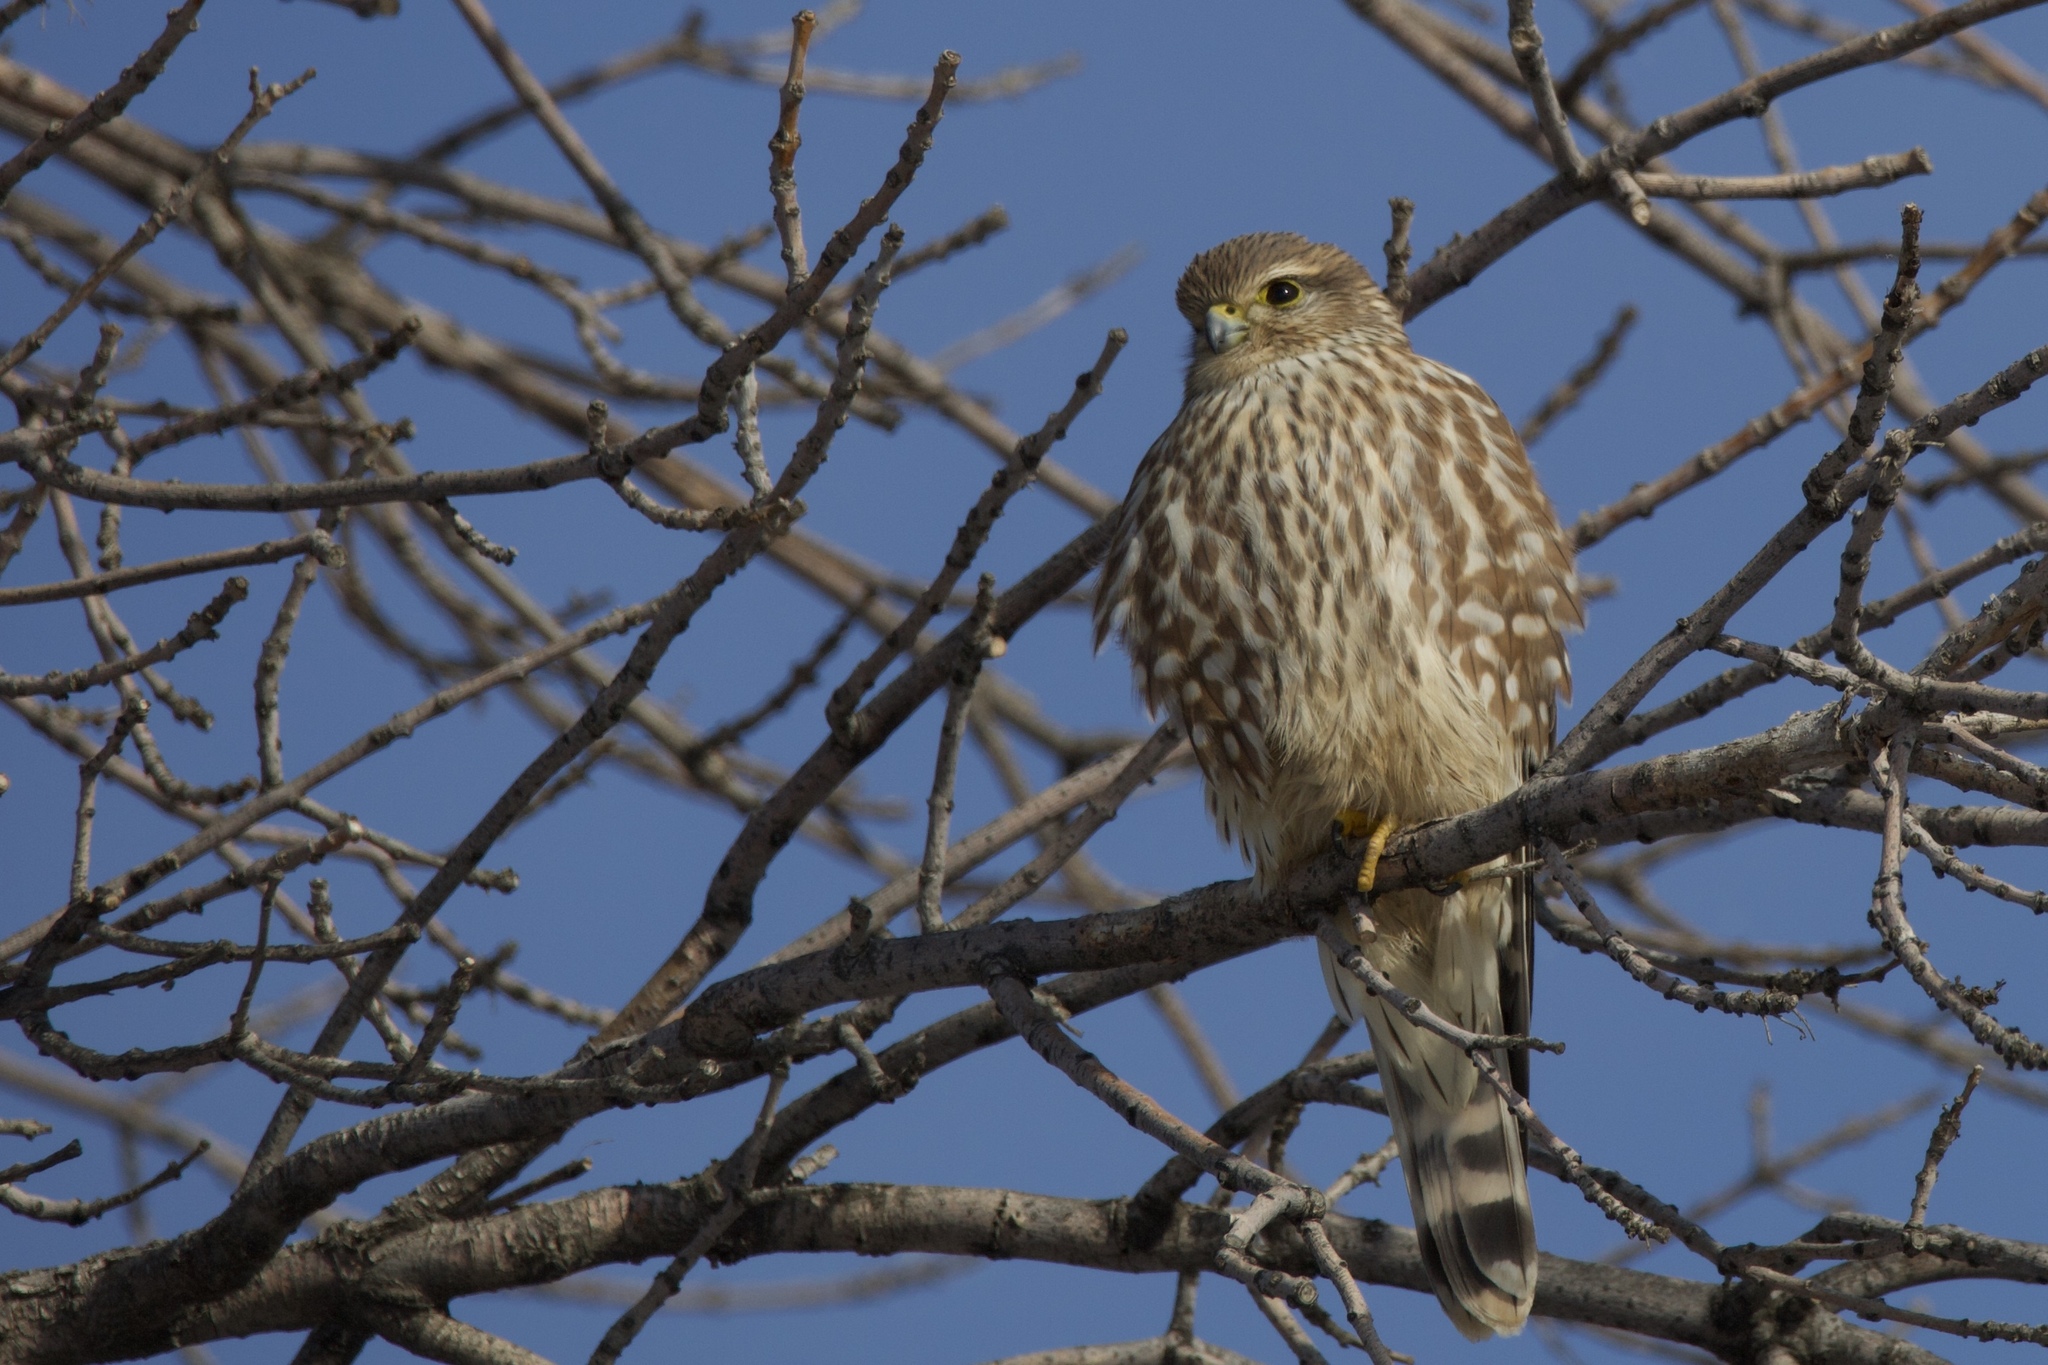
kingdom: Animalia
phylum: Chordata
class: Aves
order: Falconiformes
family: Falconidae
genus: Falco
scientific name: Falco columbarius
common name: Merlin
